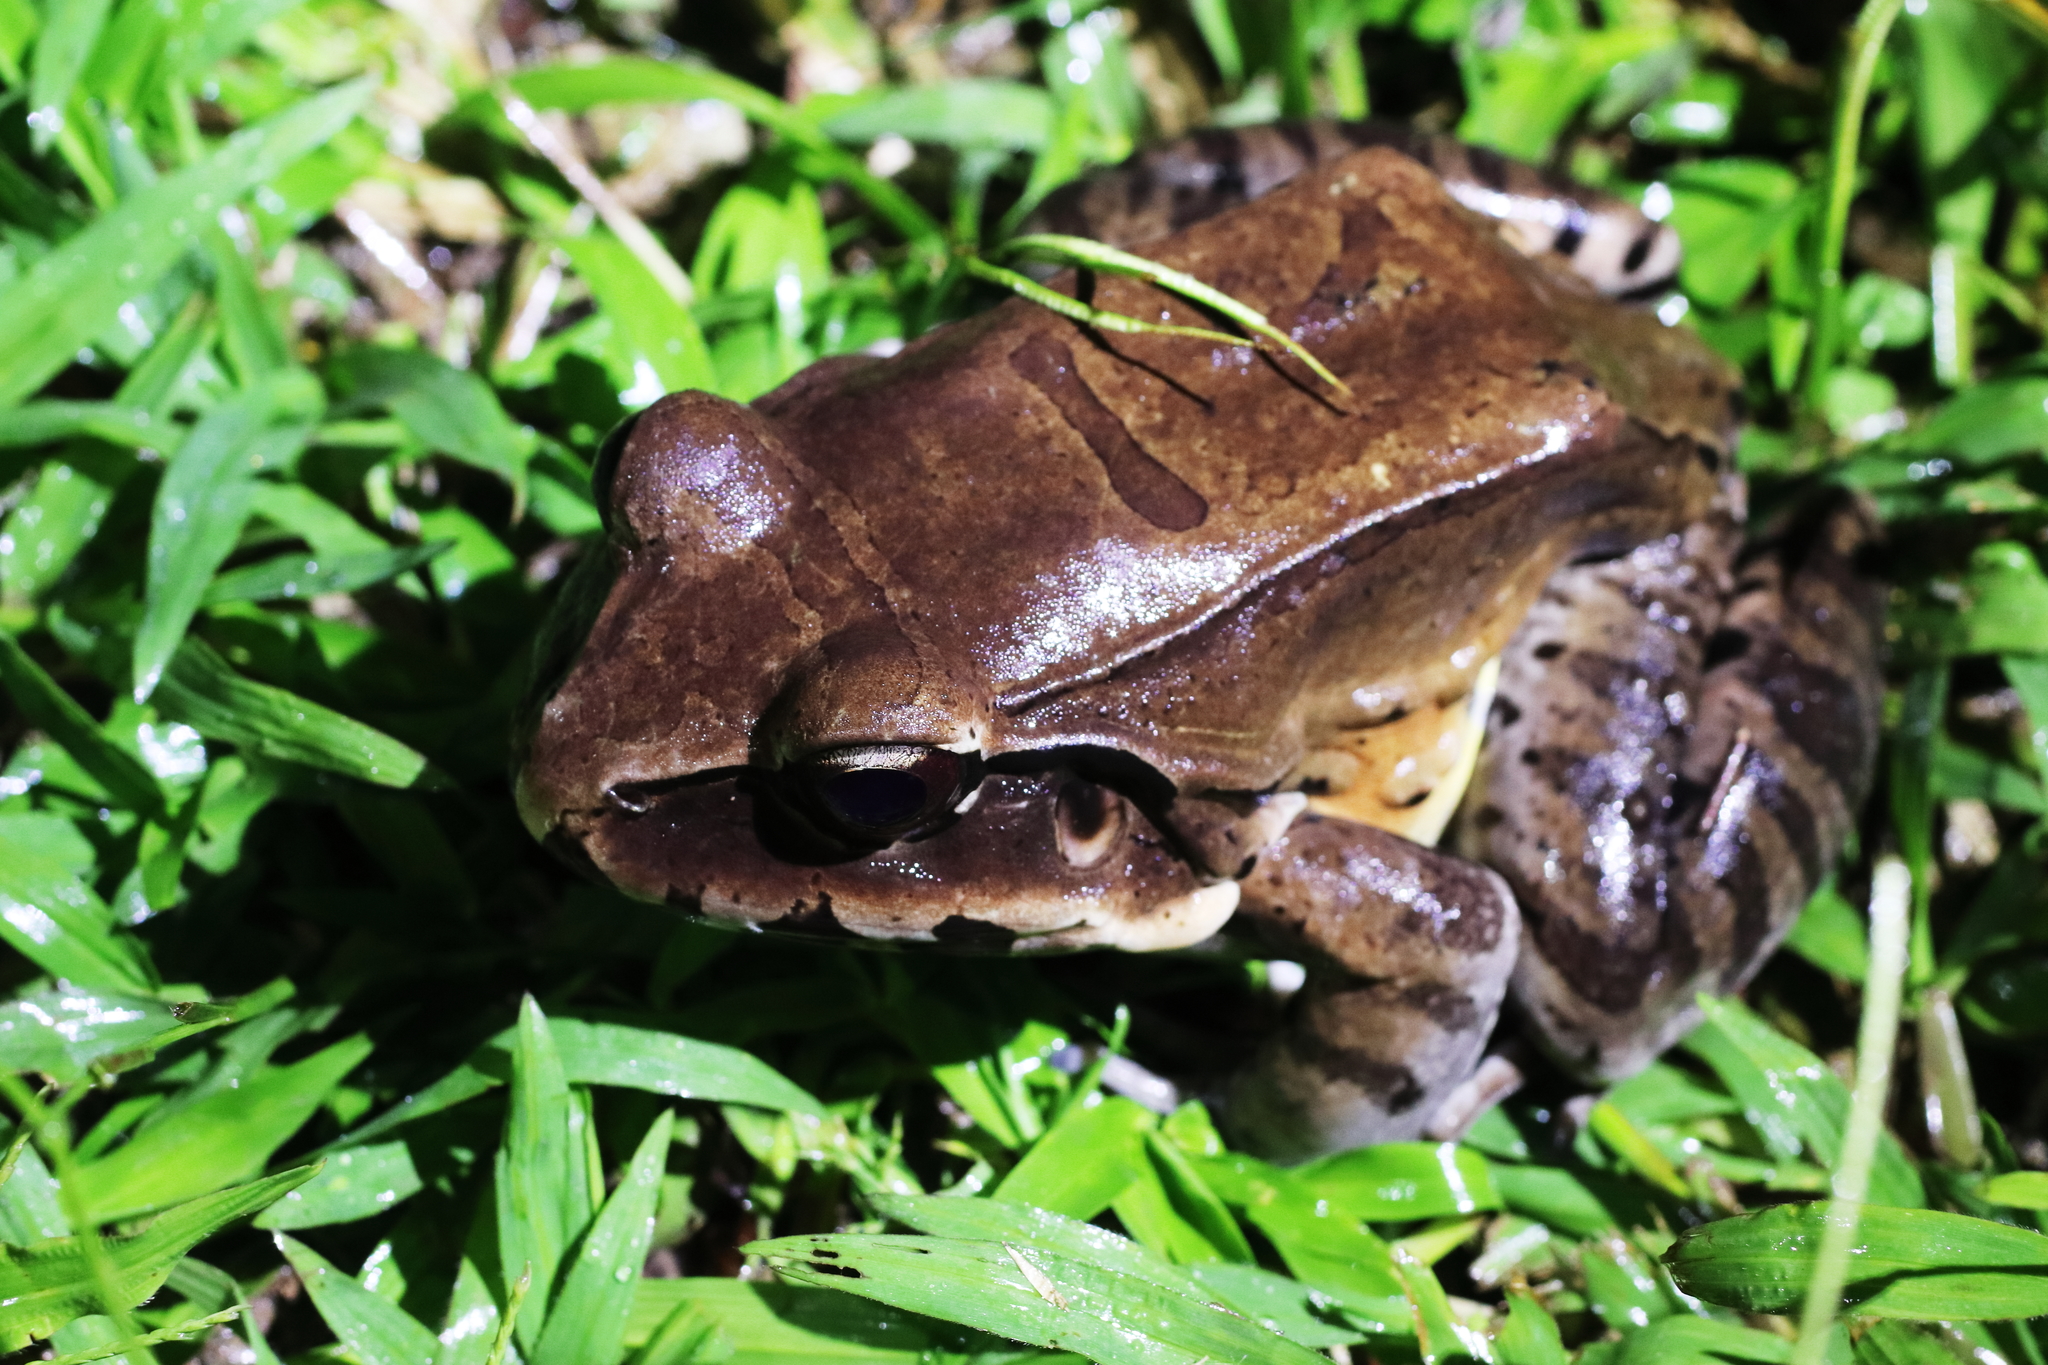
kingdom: Animalia
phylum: Chordata
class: Amphibia
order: Anura
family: Leptodactylidae
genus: Leptodactylus
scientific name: Leptodactylus pentadactylus
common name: Smoky jungle frog
